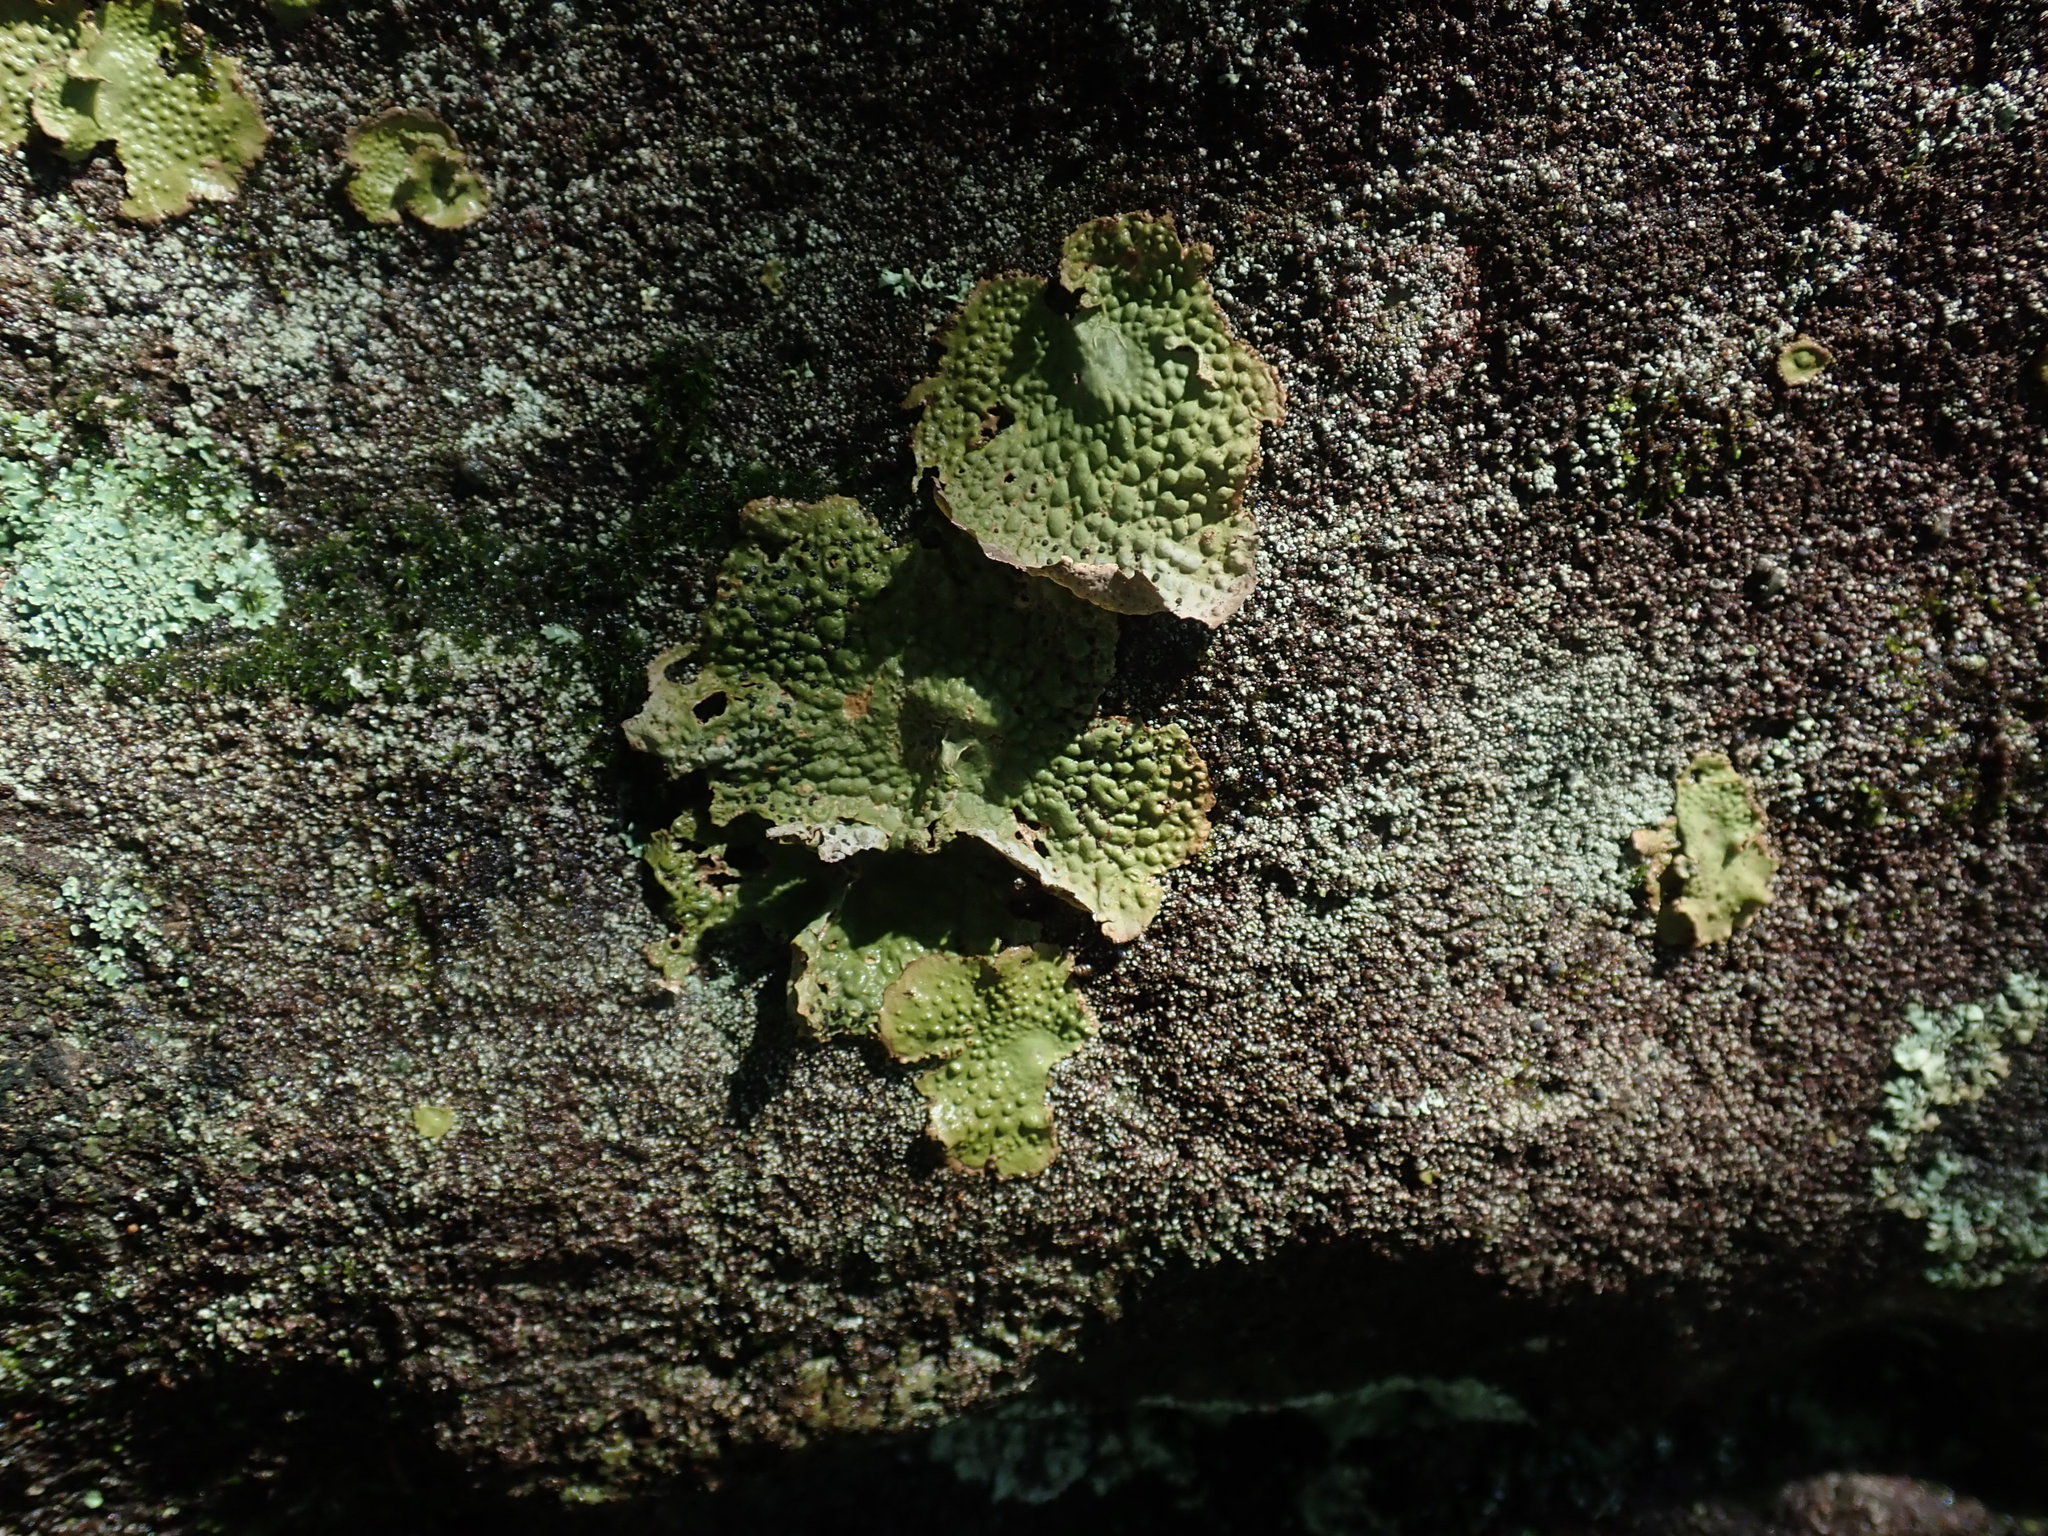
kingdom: Fungi
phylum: Ascomycota
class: Lecanoromycetes
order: Umbilicariales
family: Umbilicariaceae
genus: Lasallia
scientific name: Lasallia papulosa
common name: Common toadskin lichen
